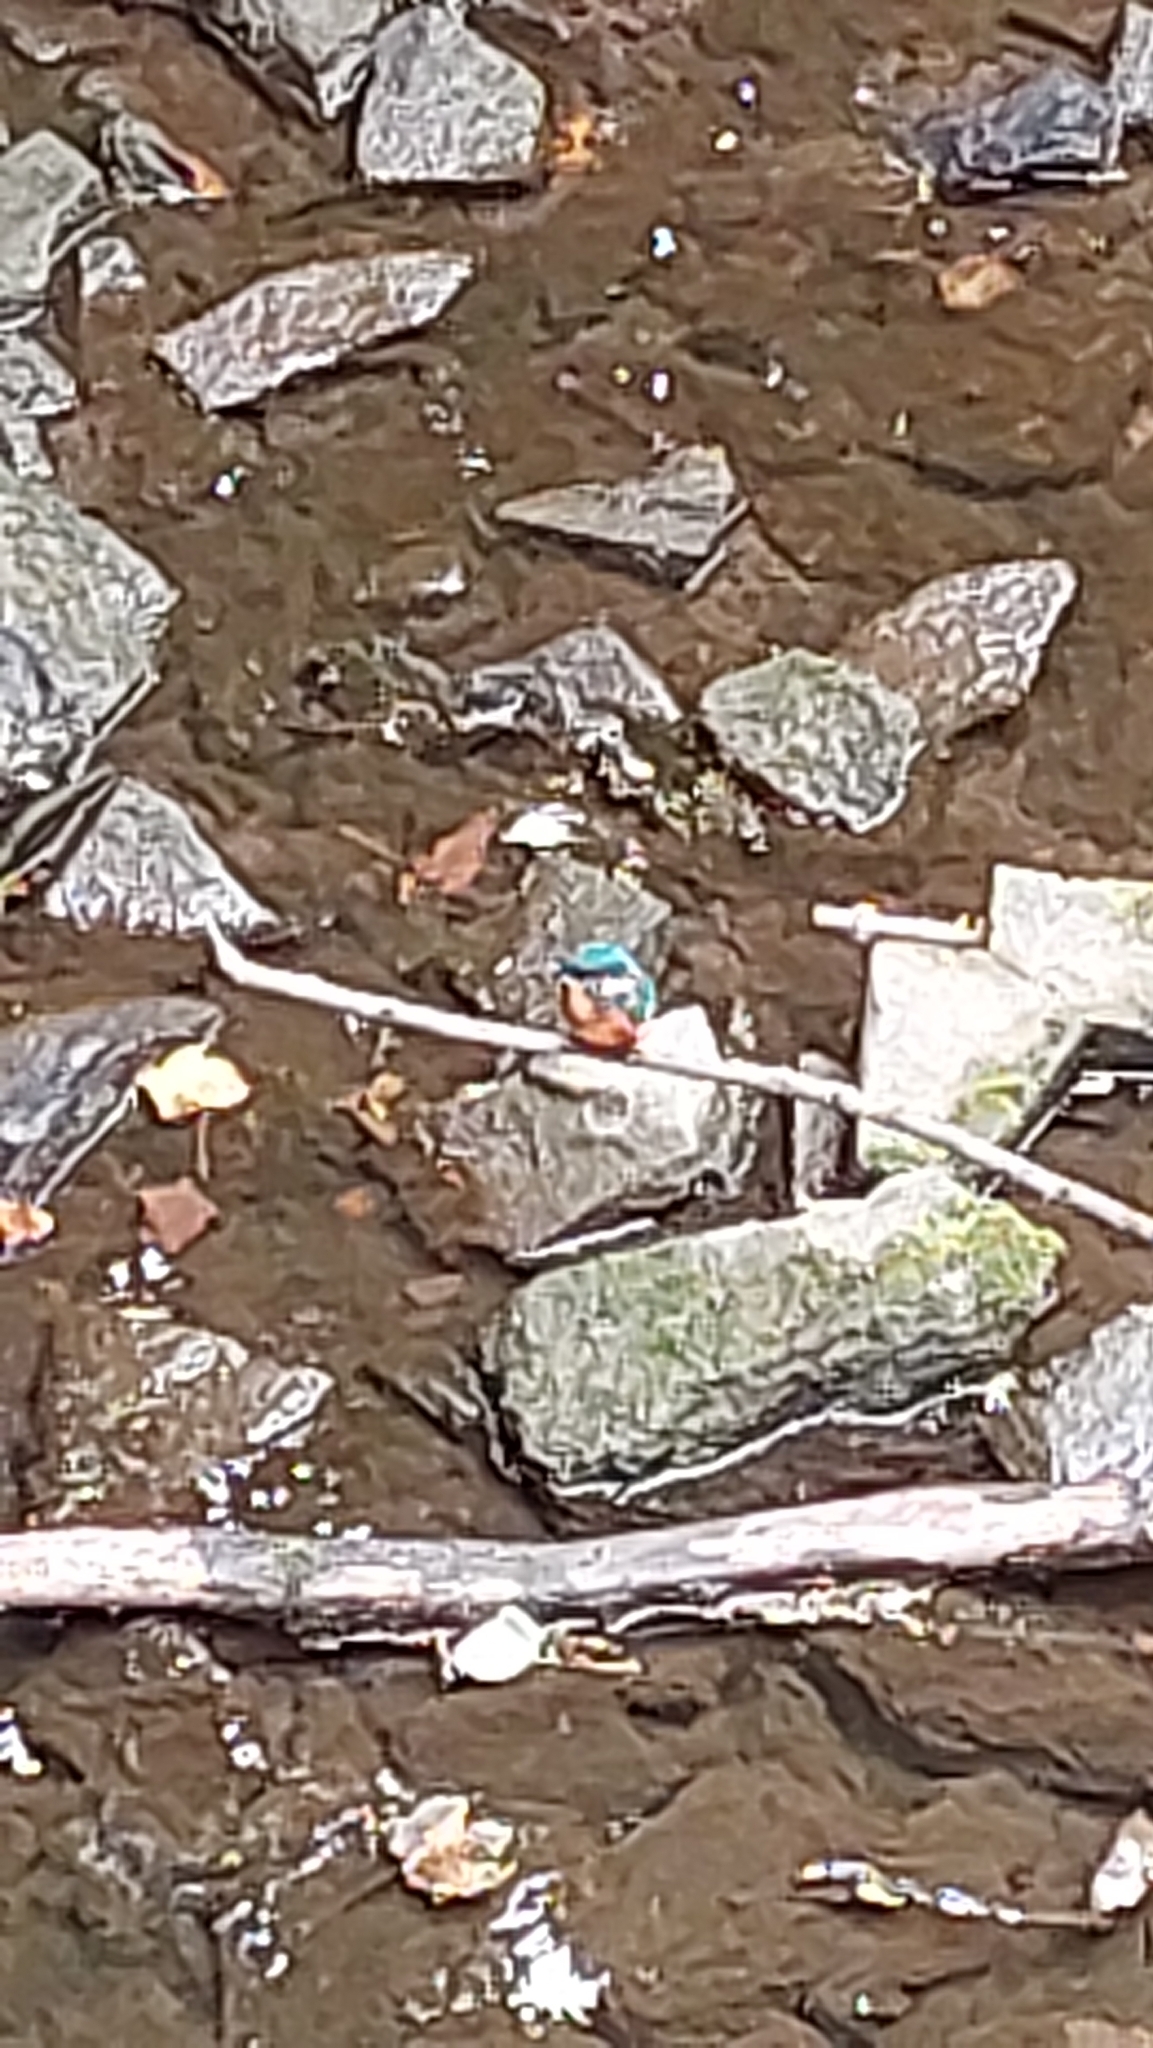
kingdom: Animalia
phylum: Chordata
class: Aves
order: Coraciiformes
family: Alcedinidae
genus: Alcedo
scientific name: Alcedo atthis
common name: Common kingfisher
